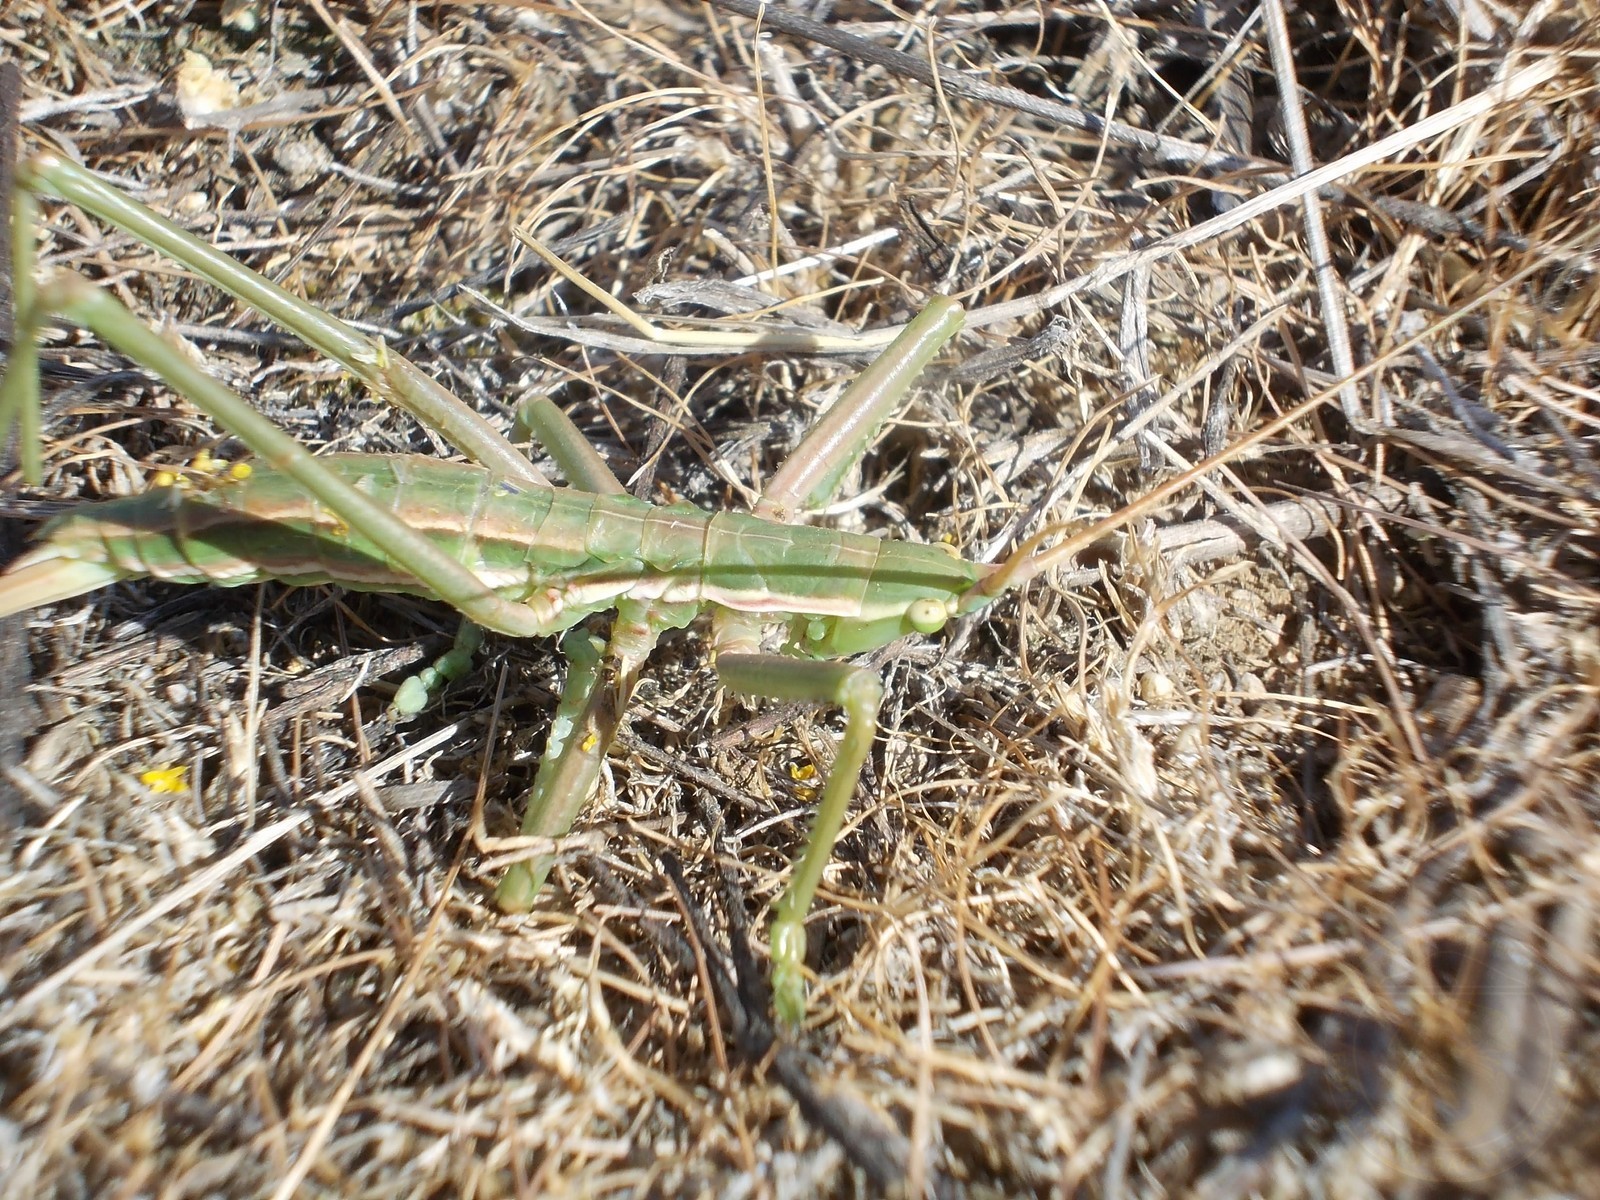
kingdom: Animalia
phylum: Arthropoda
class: Insecta
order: Orthoptera
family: Tettigoniidae
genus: Saga
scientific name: Saga pedo
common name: Common predatory bush-cricket
